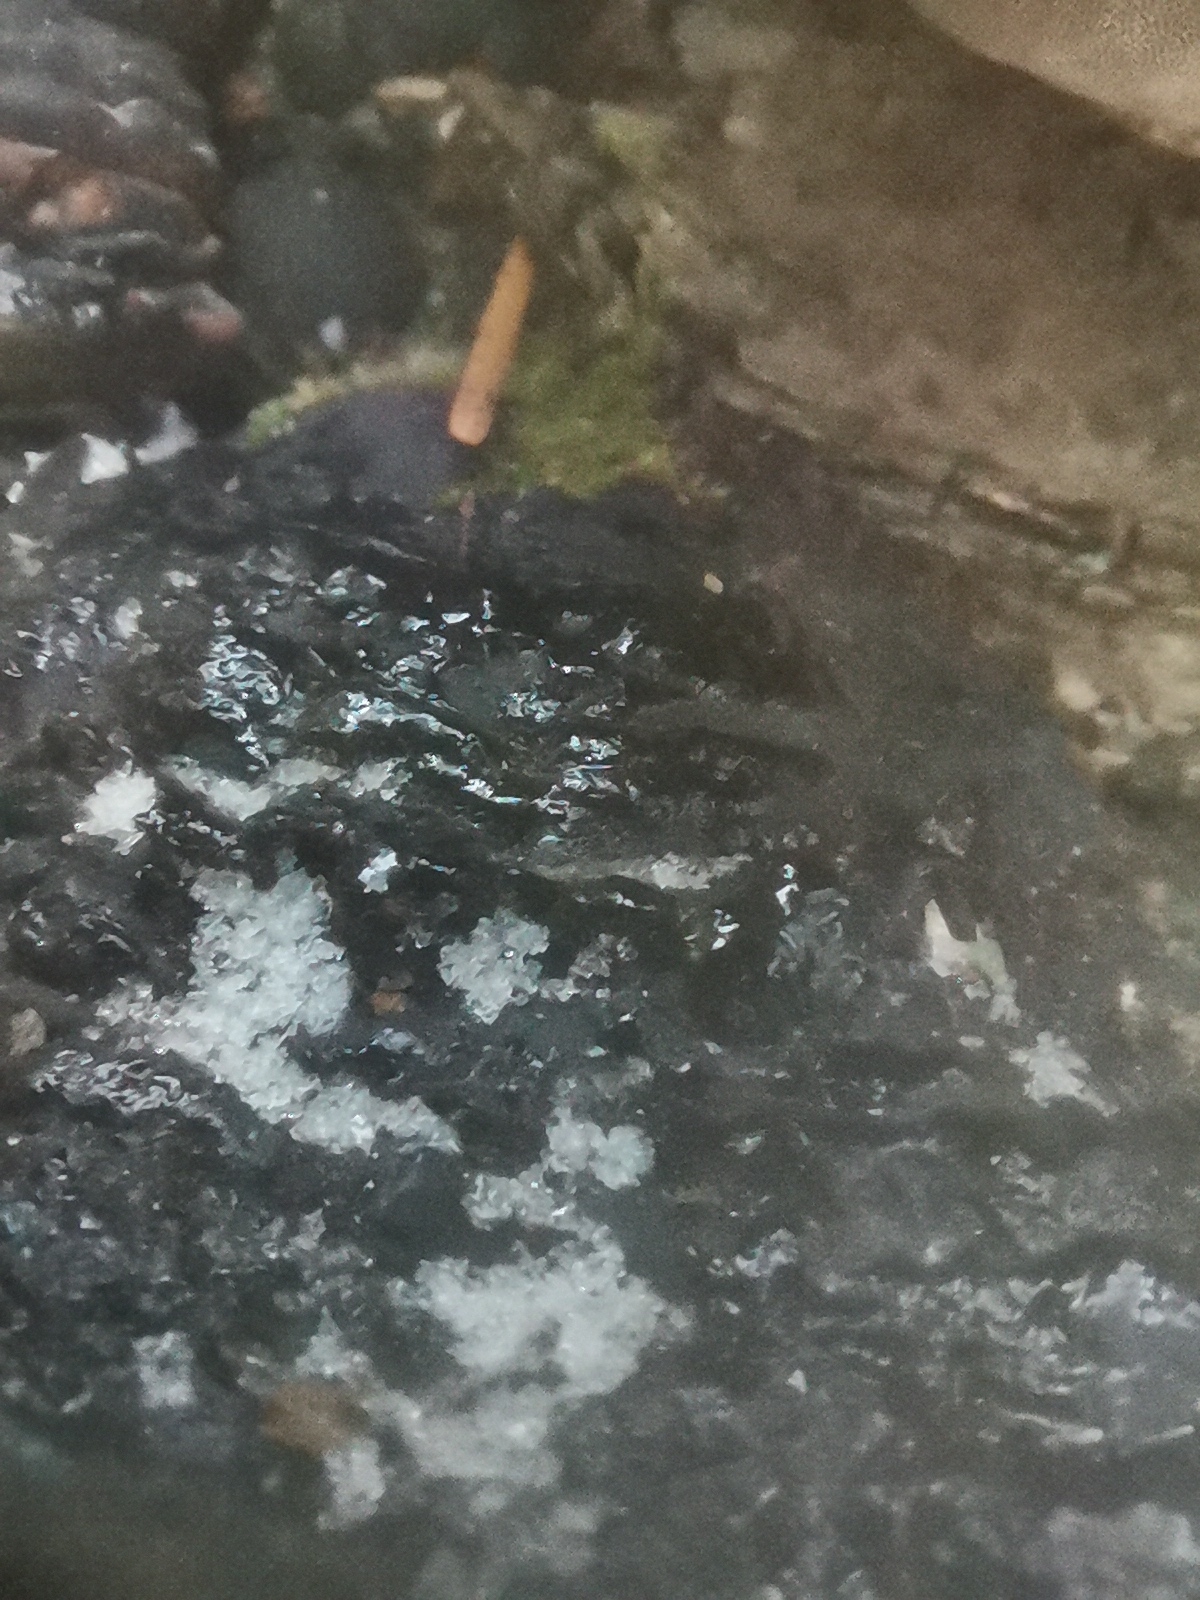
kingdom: Fungi
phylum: Basidiomycota
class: Agaricomycetes
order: Hymenochaetales
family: Hymenochaetaceae
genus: Phellinus
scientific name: Phellinus igniarius
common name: Willow bracket
